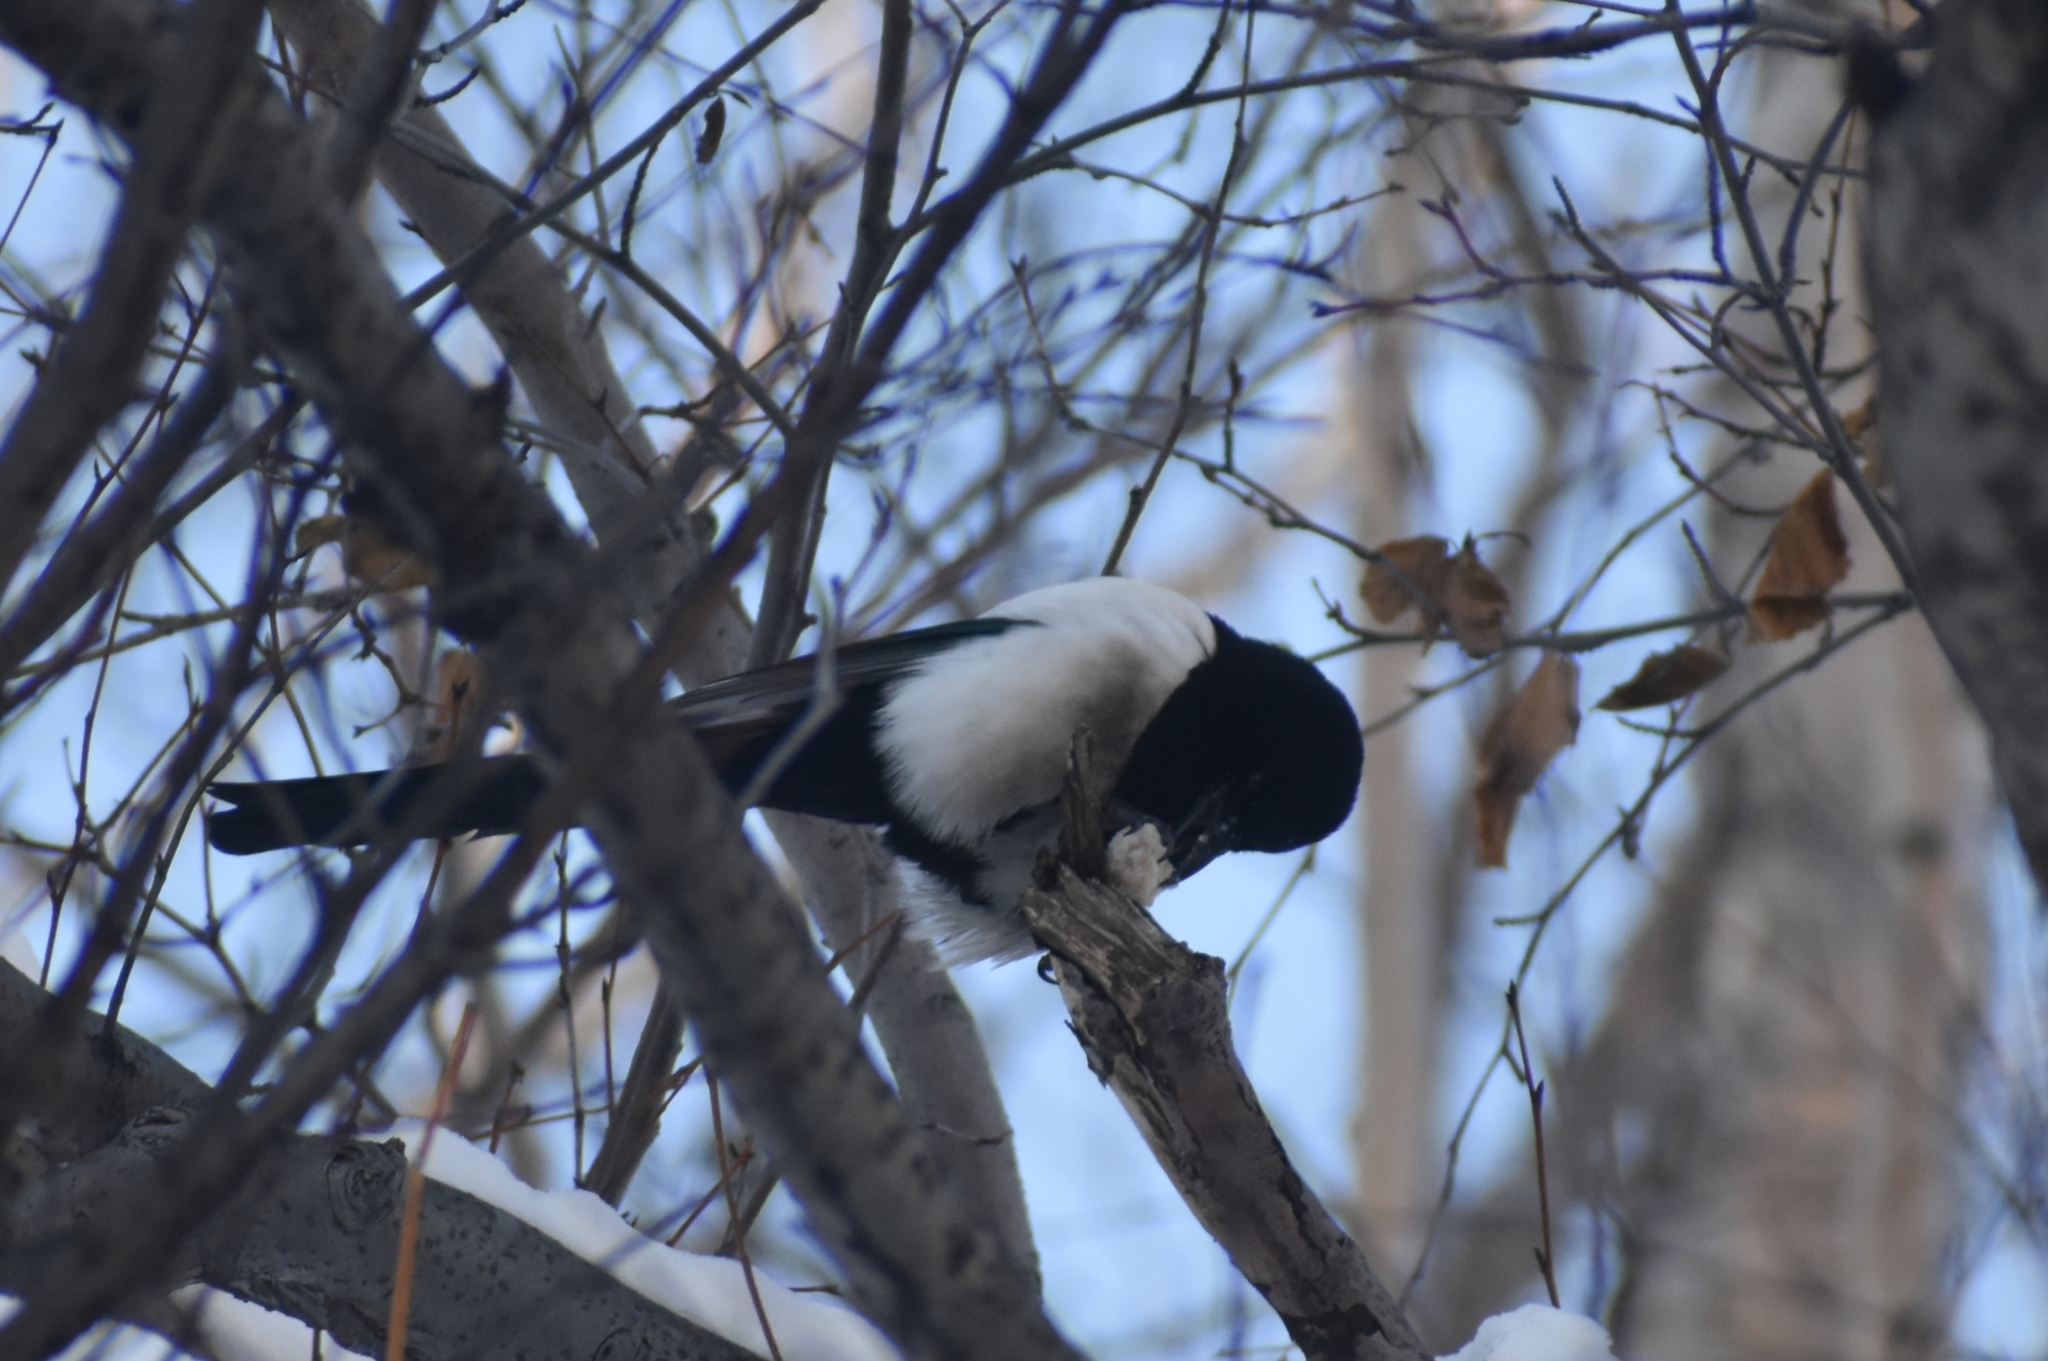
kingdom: Animalia
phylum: Chordata
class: Aves
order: Passeriformes
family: Corvidae
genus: Pica
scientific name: Pica pica
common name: Eurasian magpie
